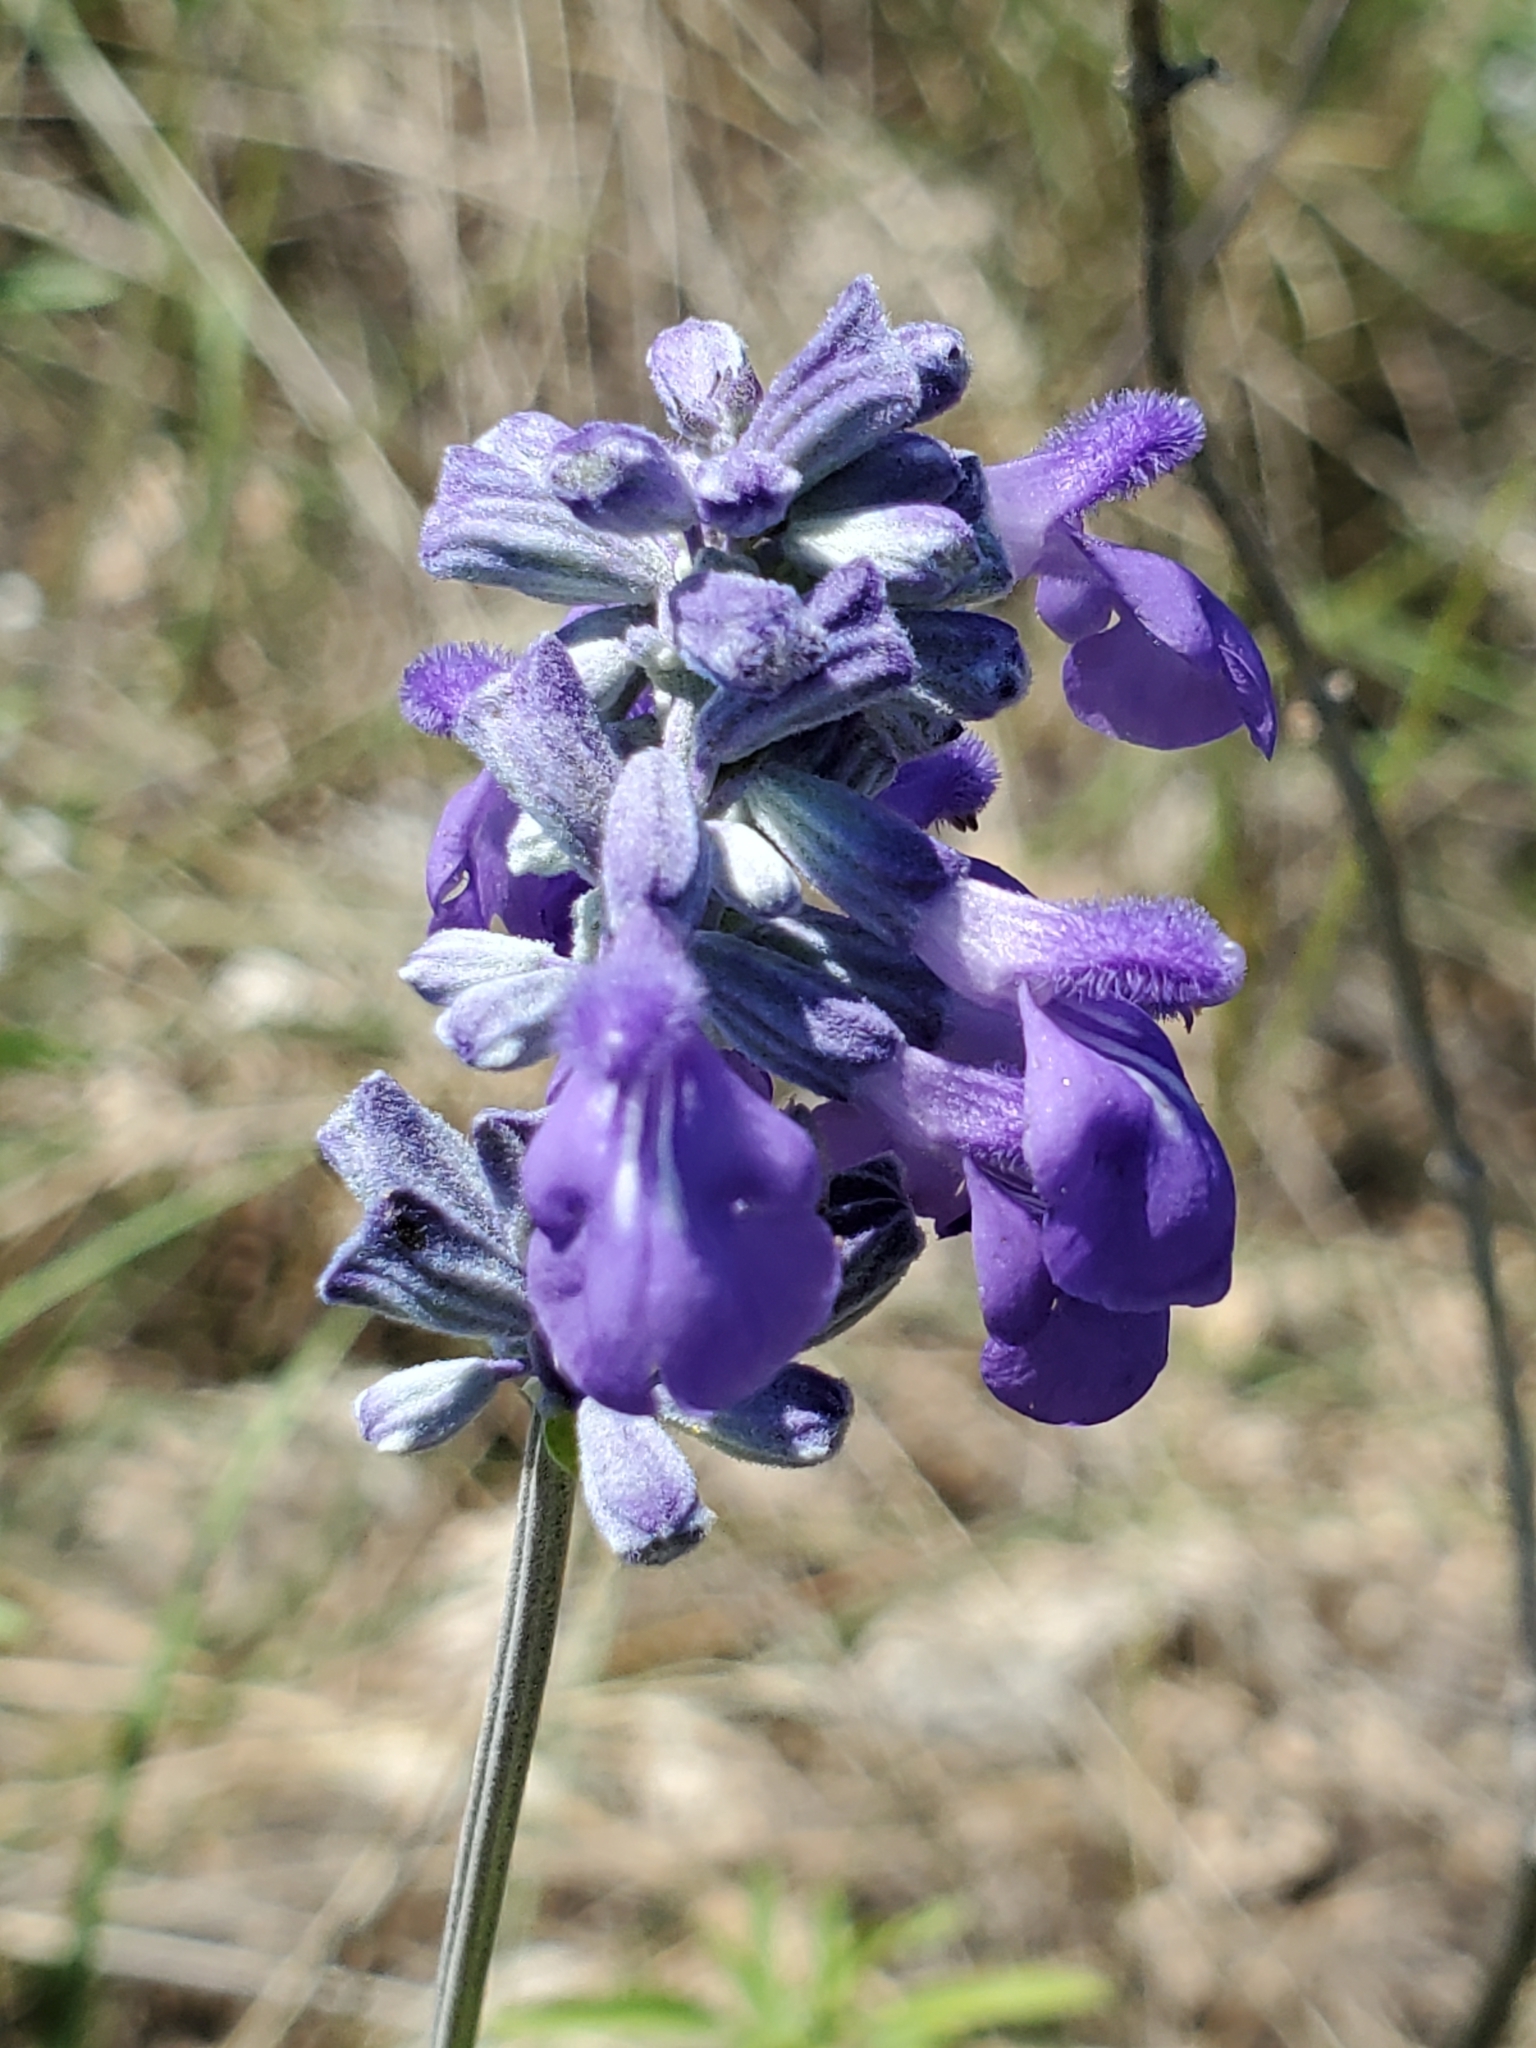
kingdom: Plantae
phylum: Tracheophyta
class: Magnoliopsida
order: Lamiales
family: Lamiaceae
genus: Salvia
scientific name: Salvia farinacea
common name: Mealy sage
